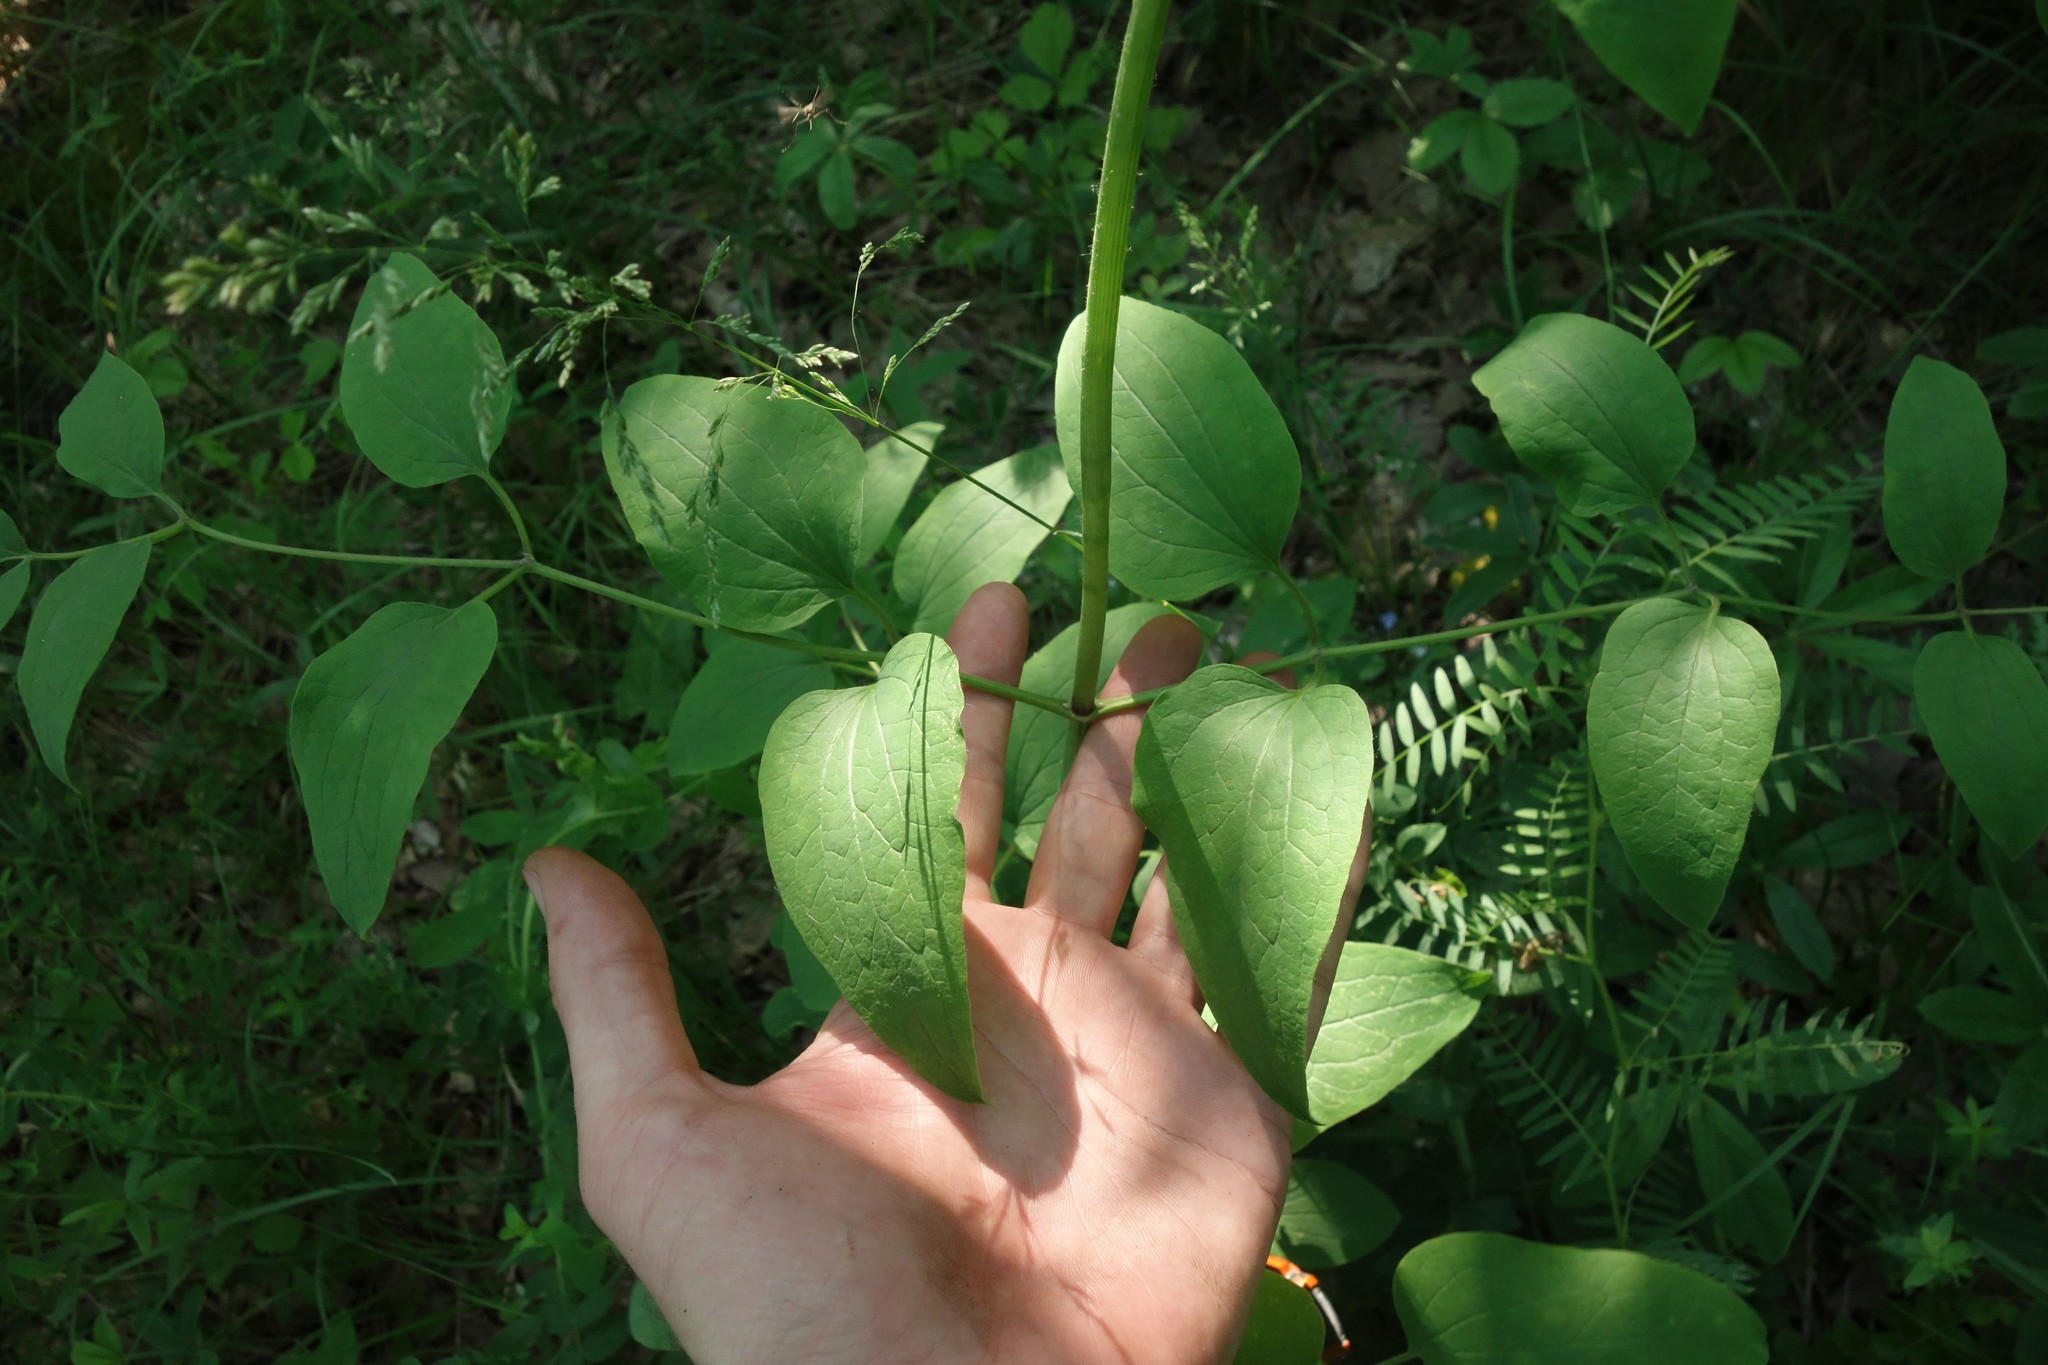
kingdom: Plantae
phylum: Tracheophyta
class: Magnoliopsida
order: Ranunculales
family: Ranunculaceae
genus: Clematis
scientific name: Clematis recta
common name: Ground clematis
